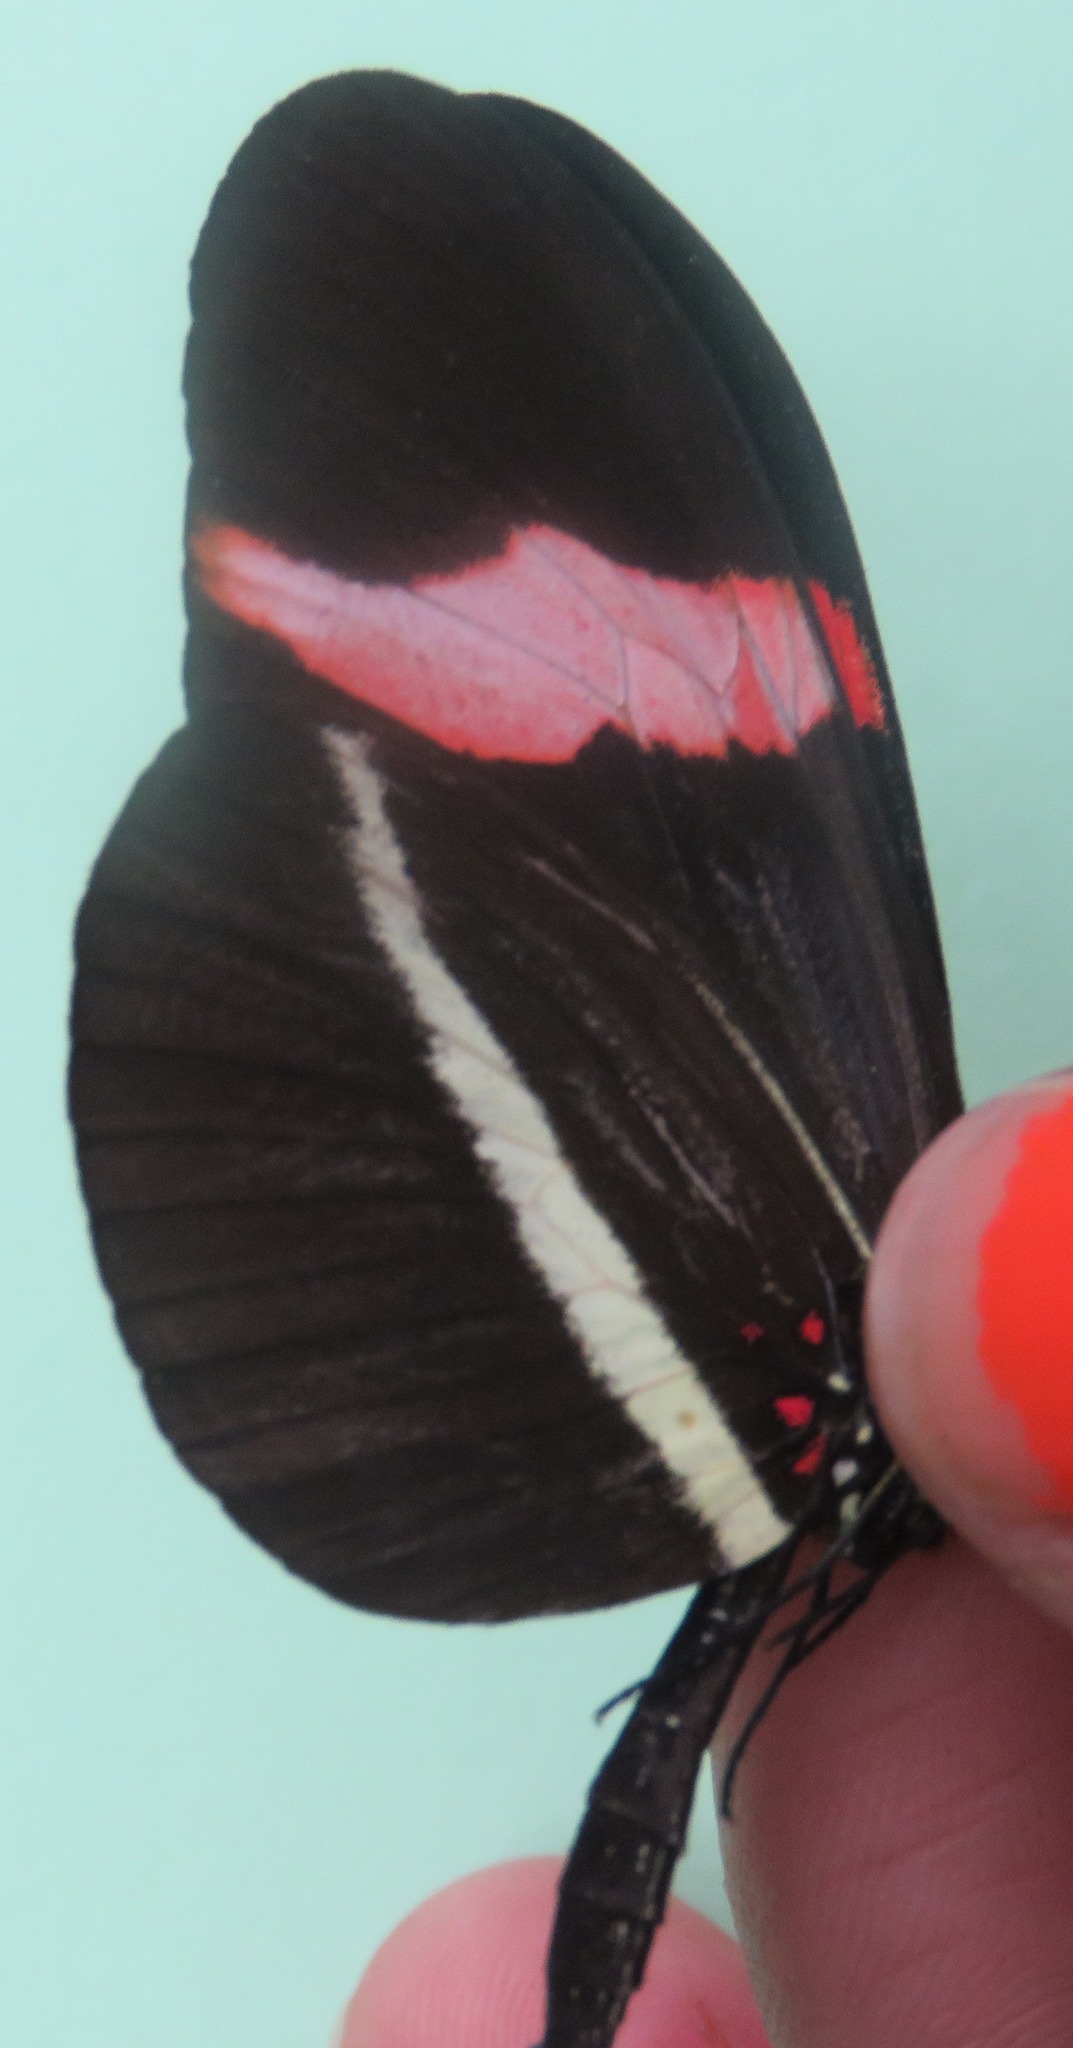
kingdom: Animalia
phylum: Arthropoda
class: Insecta
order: Lepidoptera
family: Nymphalidae
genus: Tirumala
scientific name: Tirumala petiverana
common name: Blue monarch
